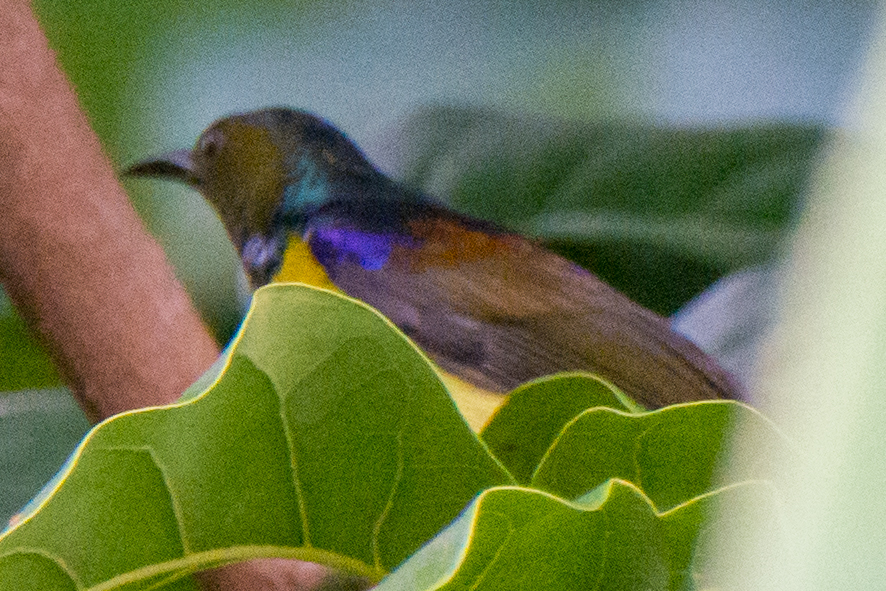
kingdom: Animalia
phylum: Chordata
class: Aves
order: Passeriformes
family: Nectariniidae
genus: Anthreptes
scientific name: Anthreptes malacensis
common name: Brown-throated sunbird
